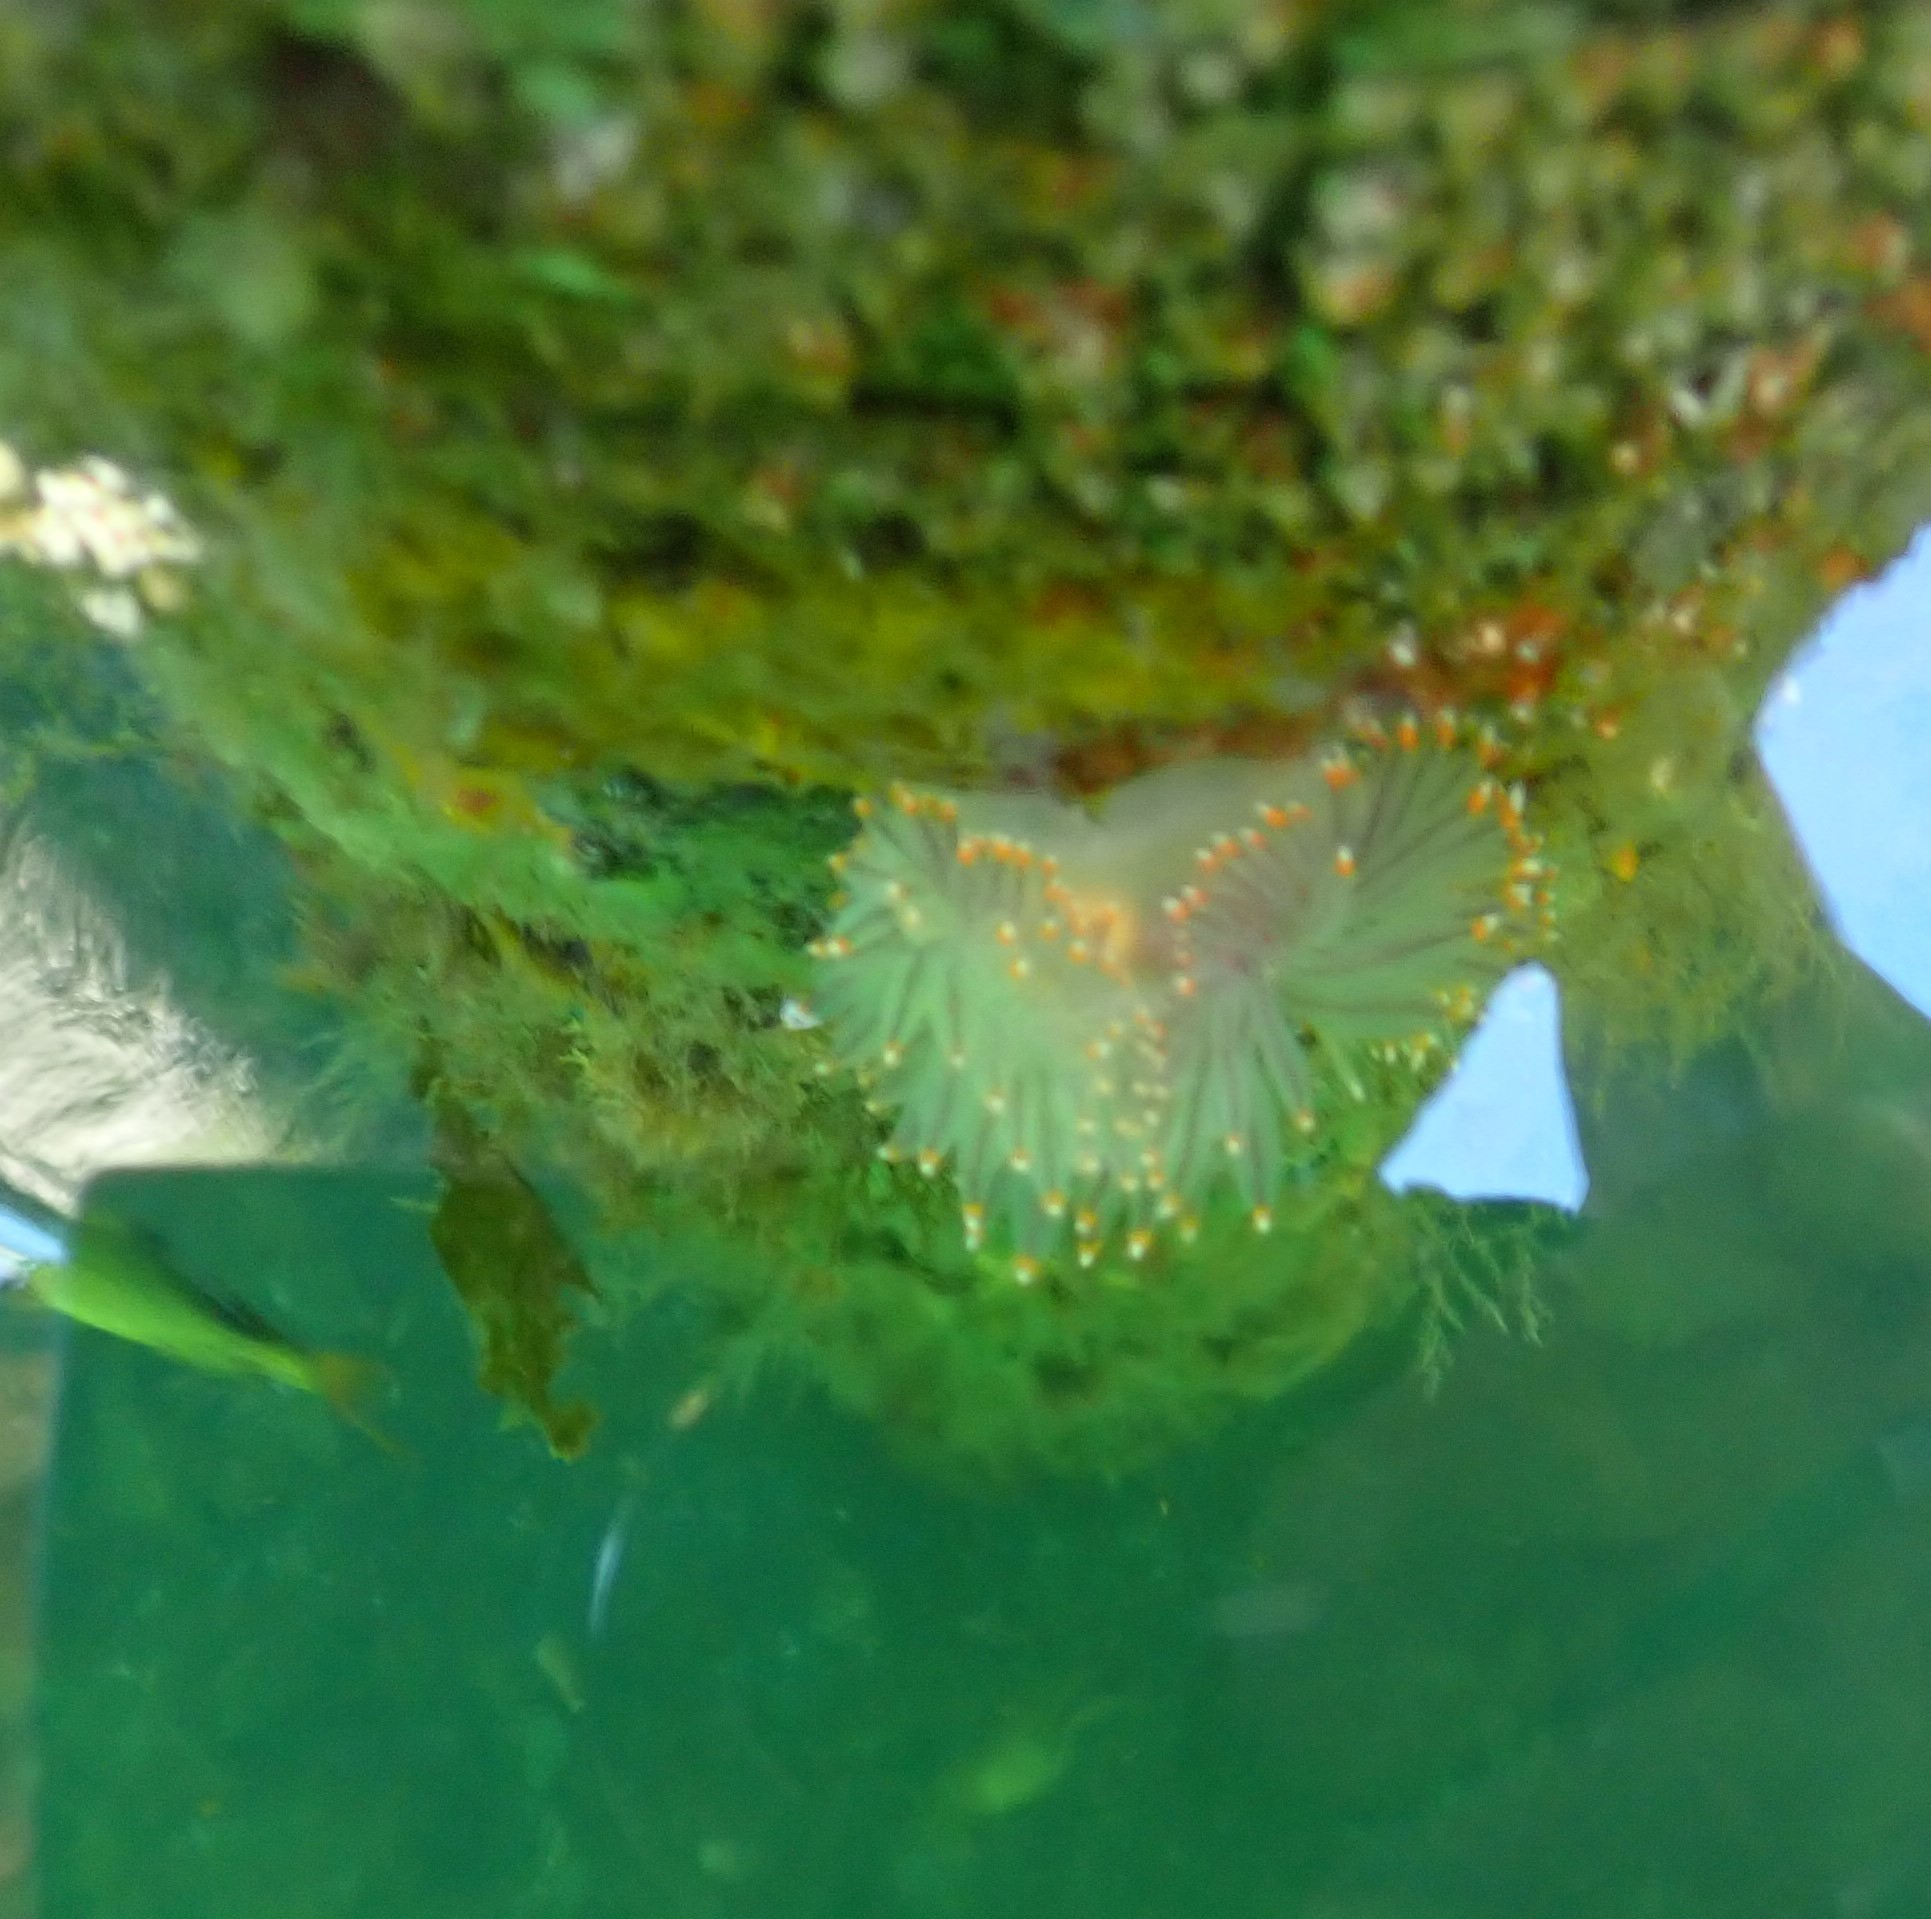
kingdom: Animalia
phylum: Mollusca
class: Gastropoda
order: Nudibranchia
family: Janolidae
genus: Antiopella
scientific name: Antiopella fusca
